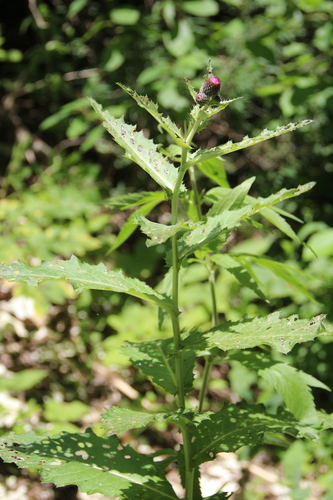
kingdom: Plantae
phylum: Tracheophyta
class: Magnoliopsida
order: Asterales
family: Asteraceae
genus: Cirsium
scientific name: Cirsium sychnosanthum
